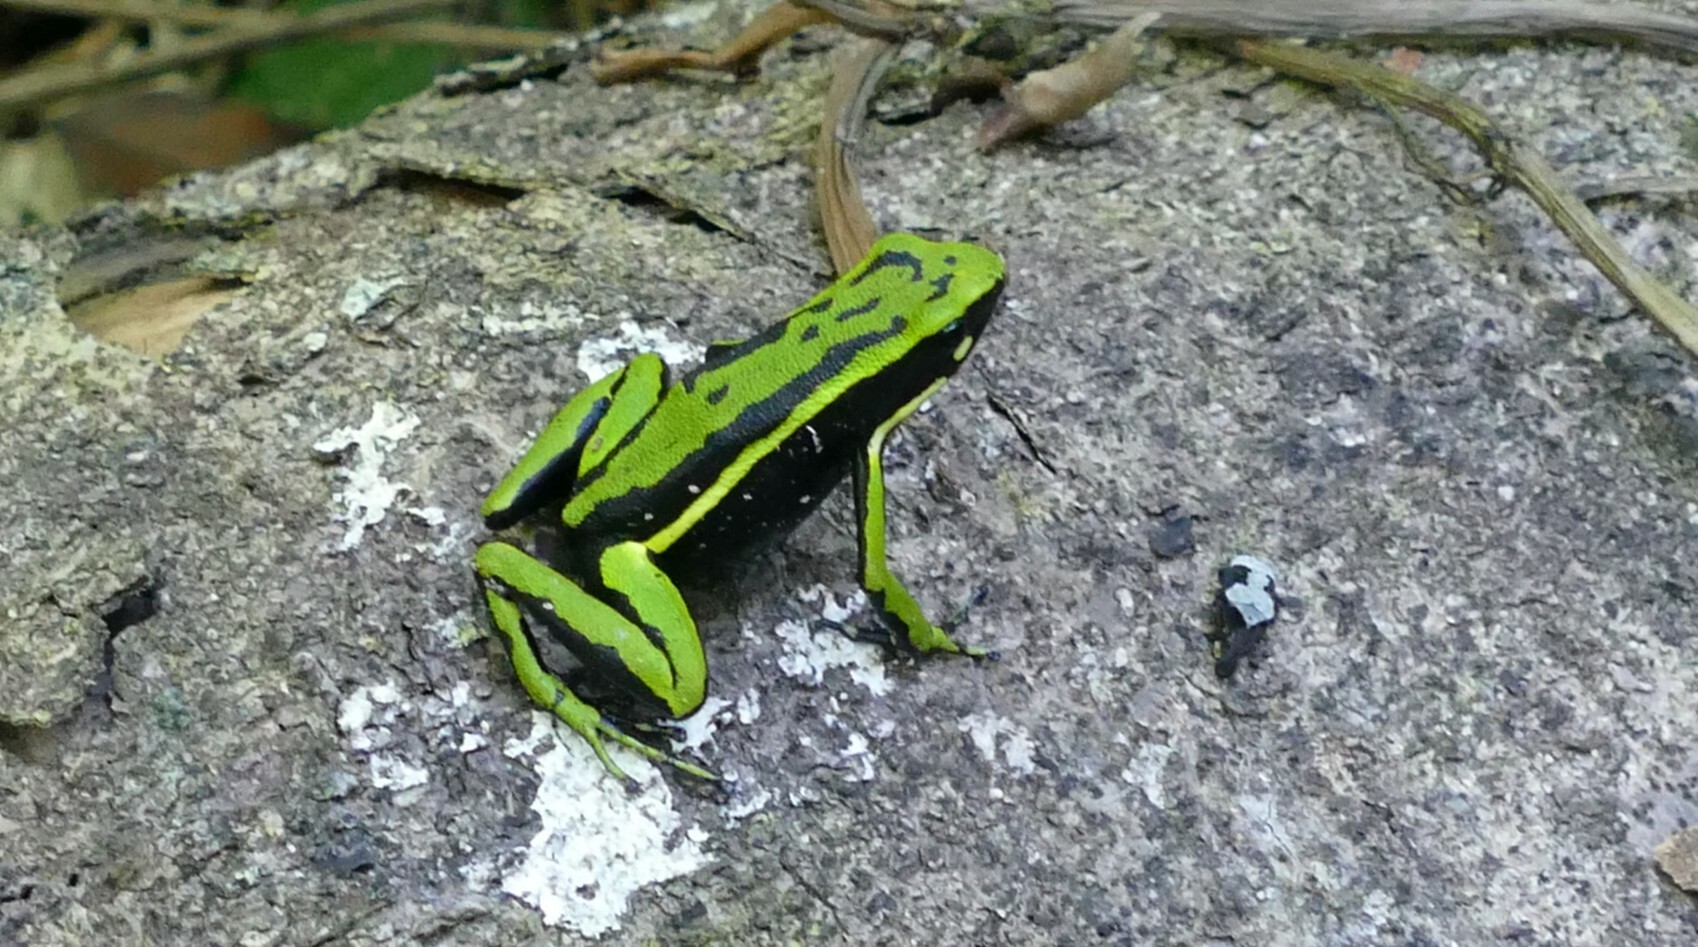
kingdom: Animalia
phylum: Chordata
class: Amphibia
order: Anura
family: Dendrobatidae
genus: Ameerega
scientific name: Ameerega trivittata
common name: Three-striped arrow-poison frog
